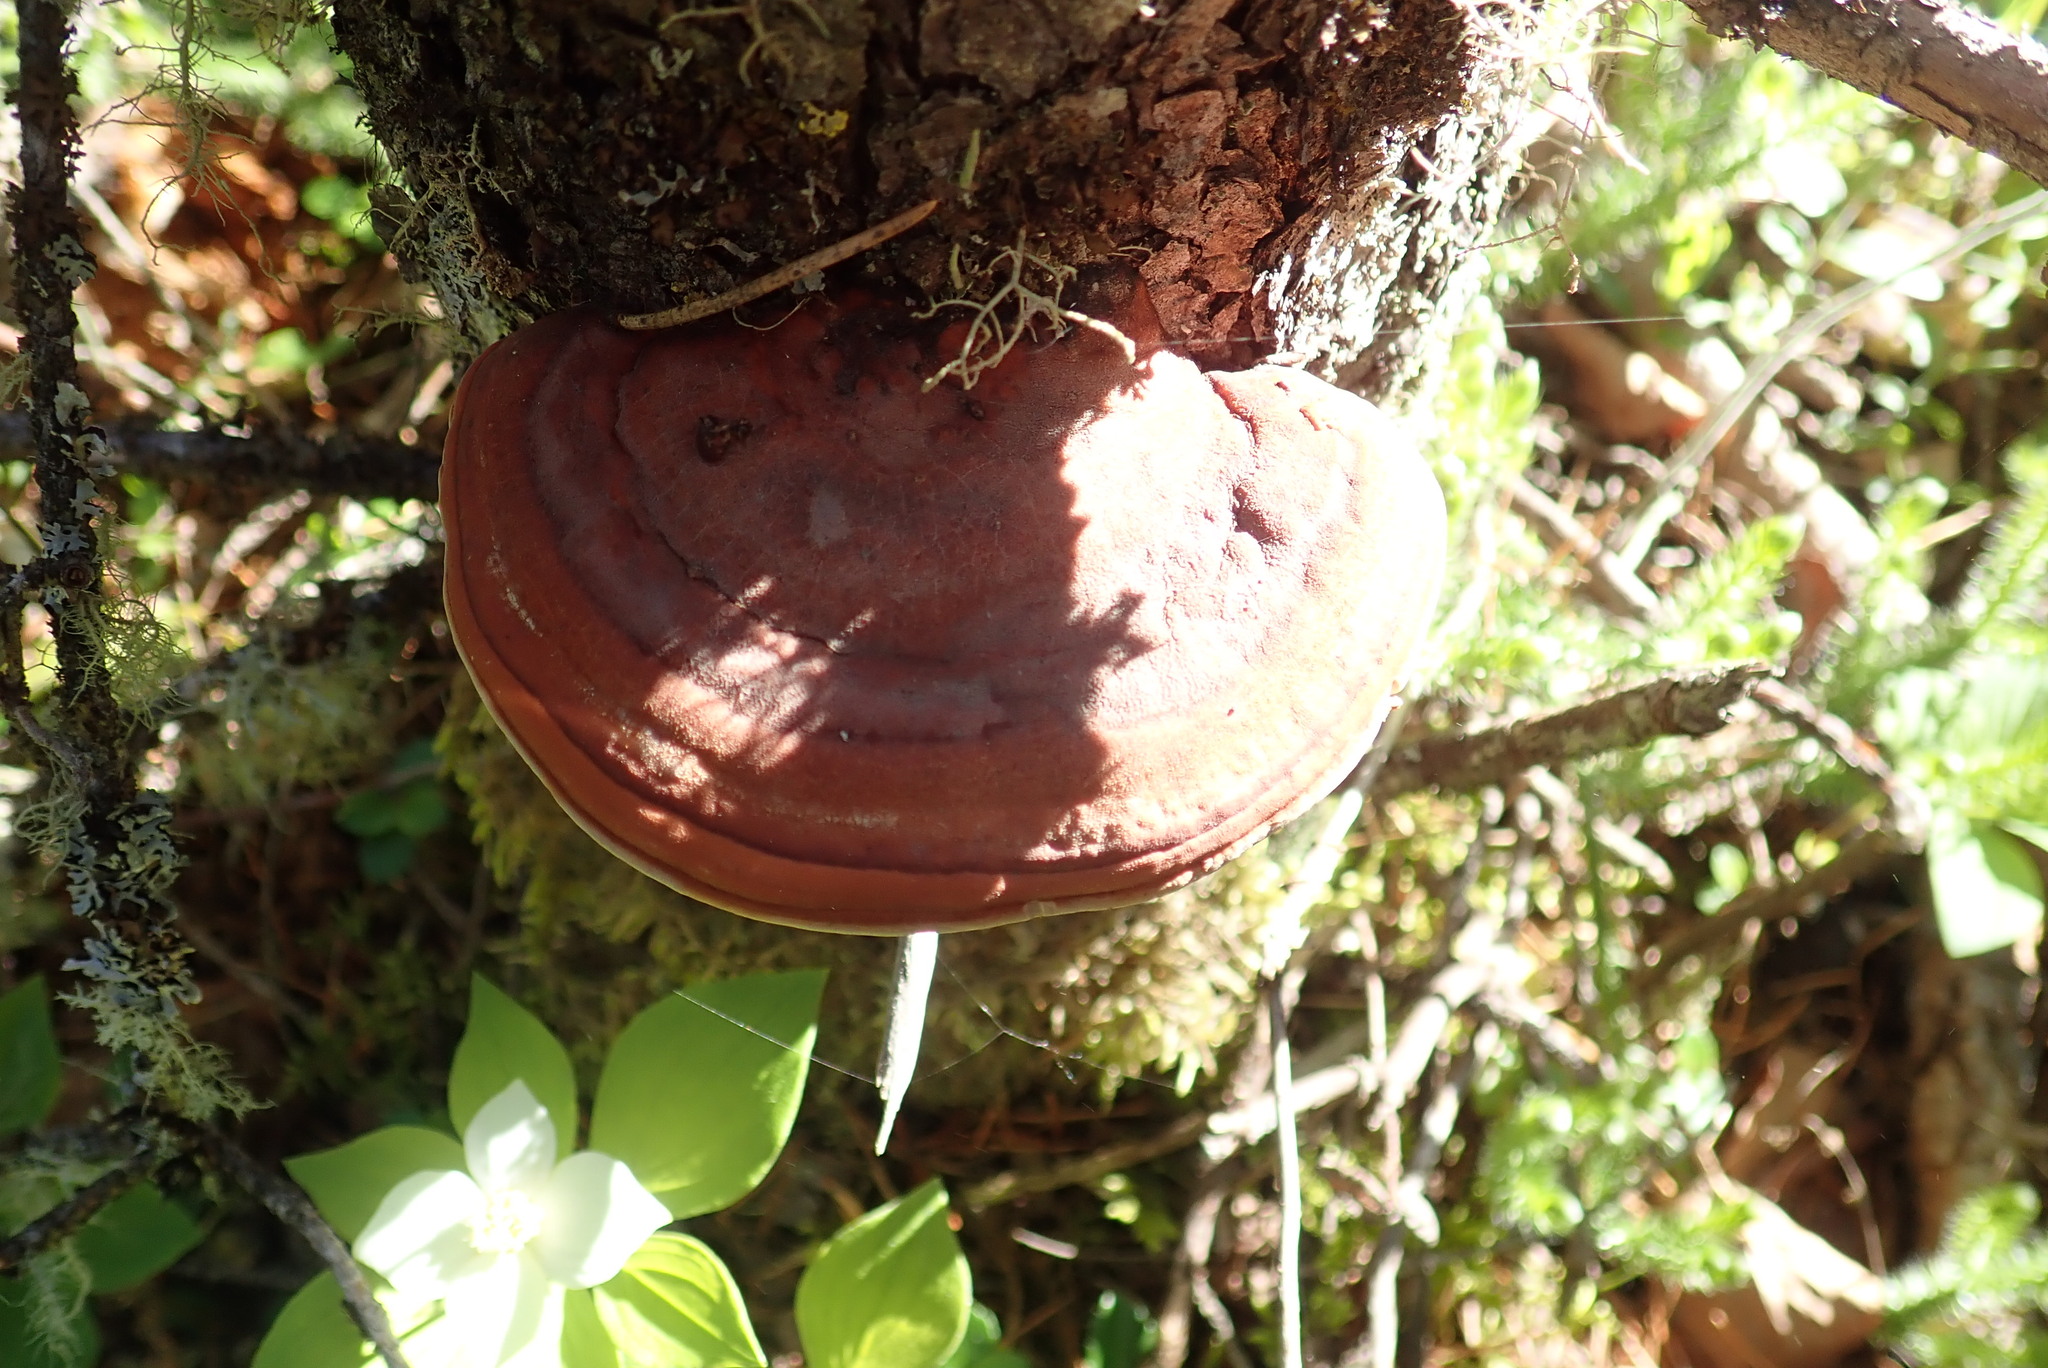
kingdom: Fungi
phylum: Basidiomycota
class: Agaricomycetes
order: Polyporales
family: Fomitopsidaceae
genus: Fomitopsis
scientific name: Fomitopsis mounceae
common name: Northern red belt
